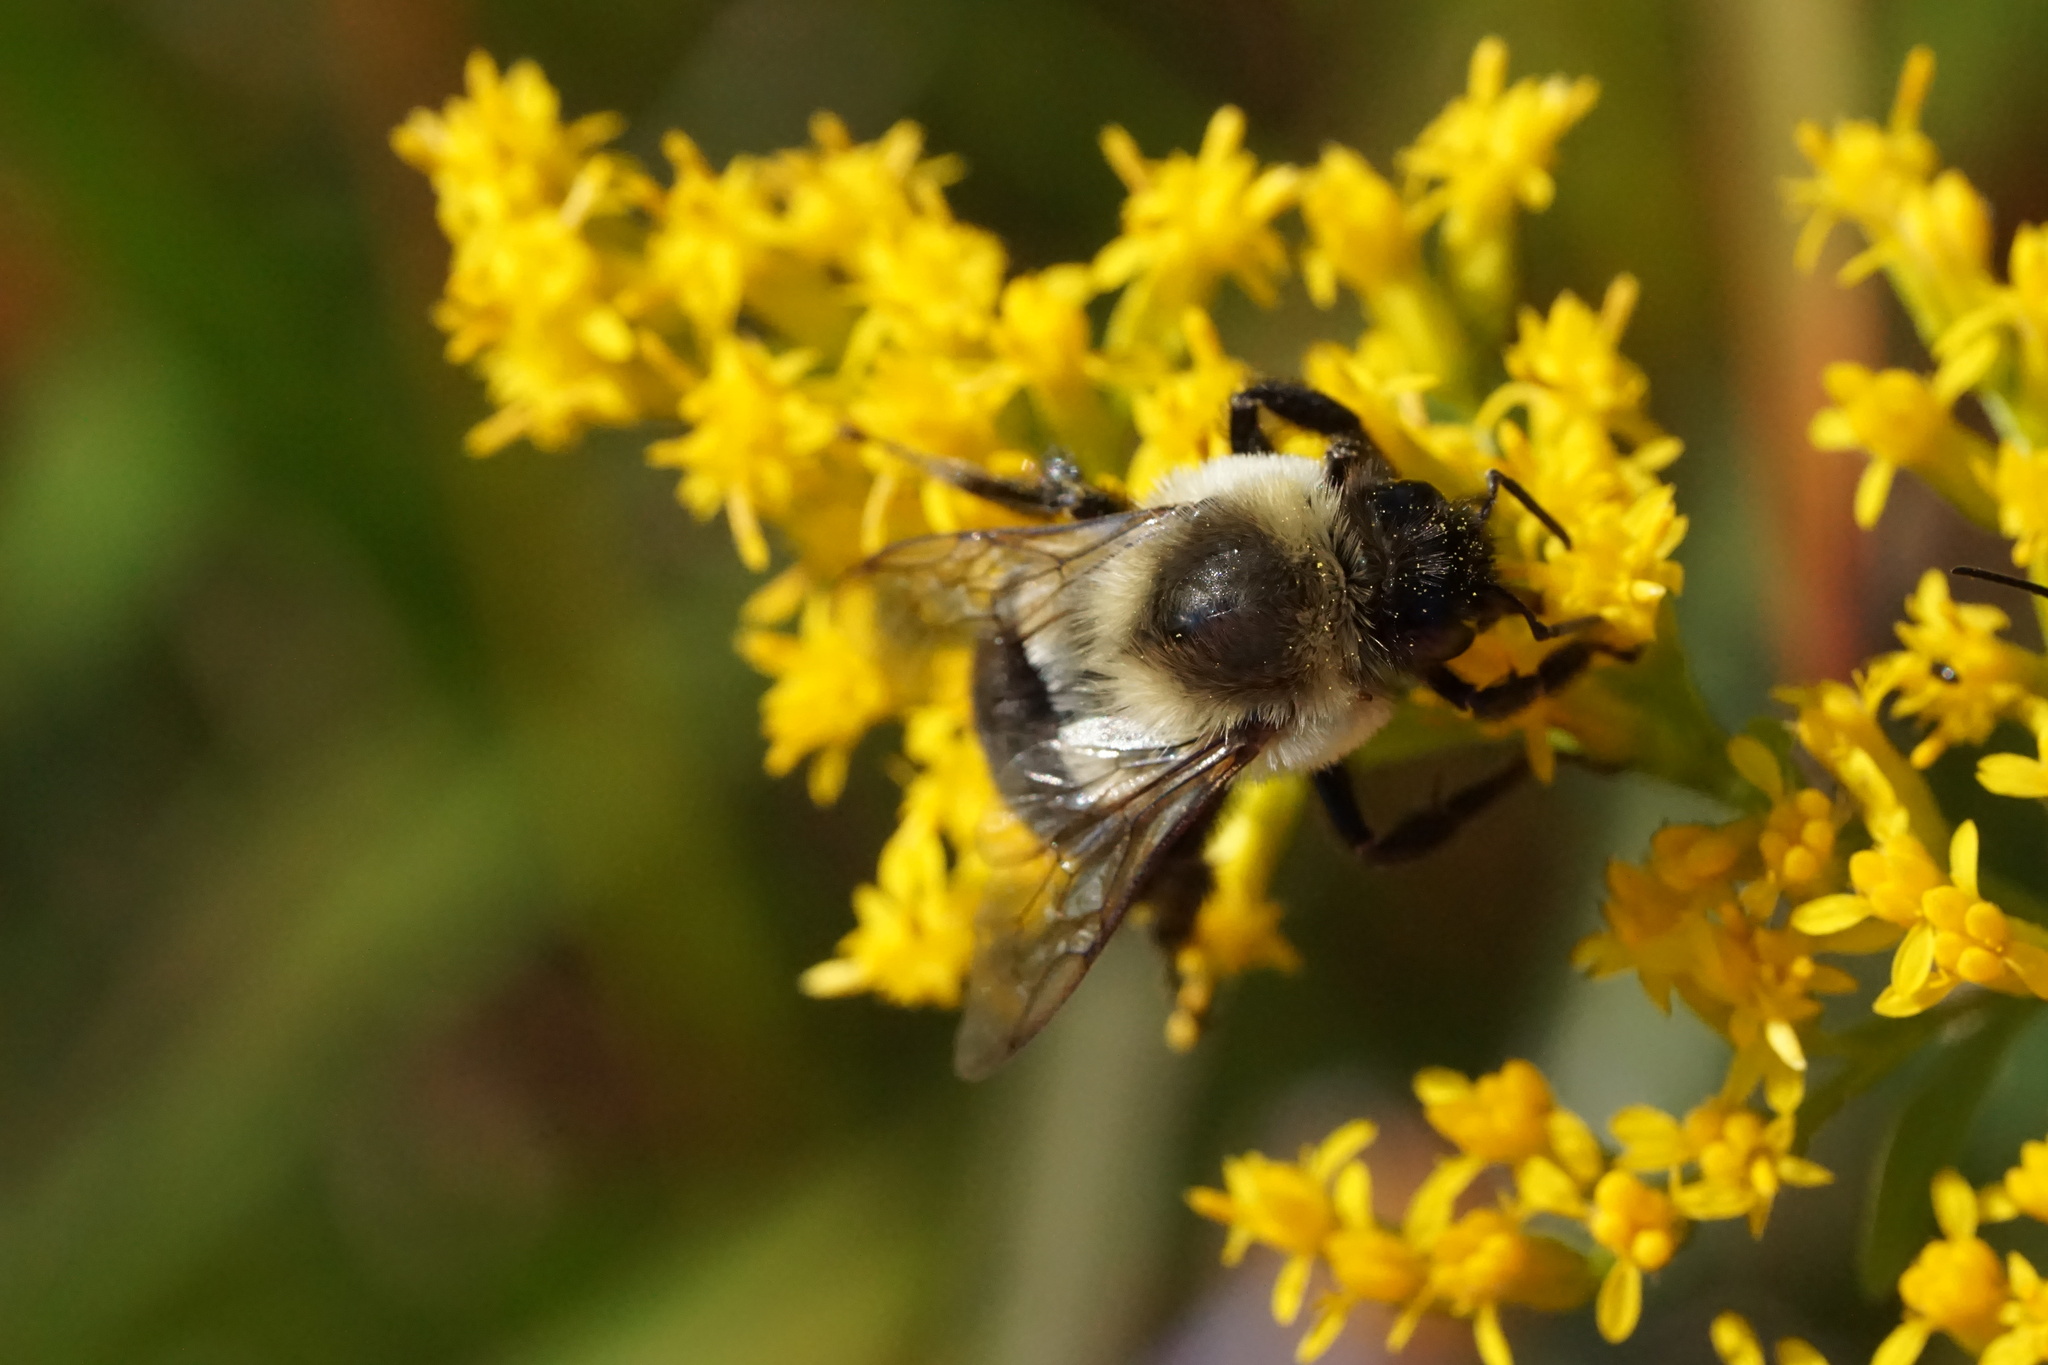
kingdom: Animalia
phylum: Arthropoda
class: Insecta
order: Hymenoptera
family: Apidae
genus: Bombus
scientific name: Bombus impatiens
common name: Common eastern bumble bee
